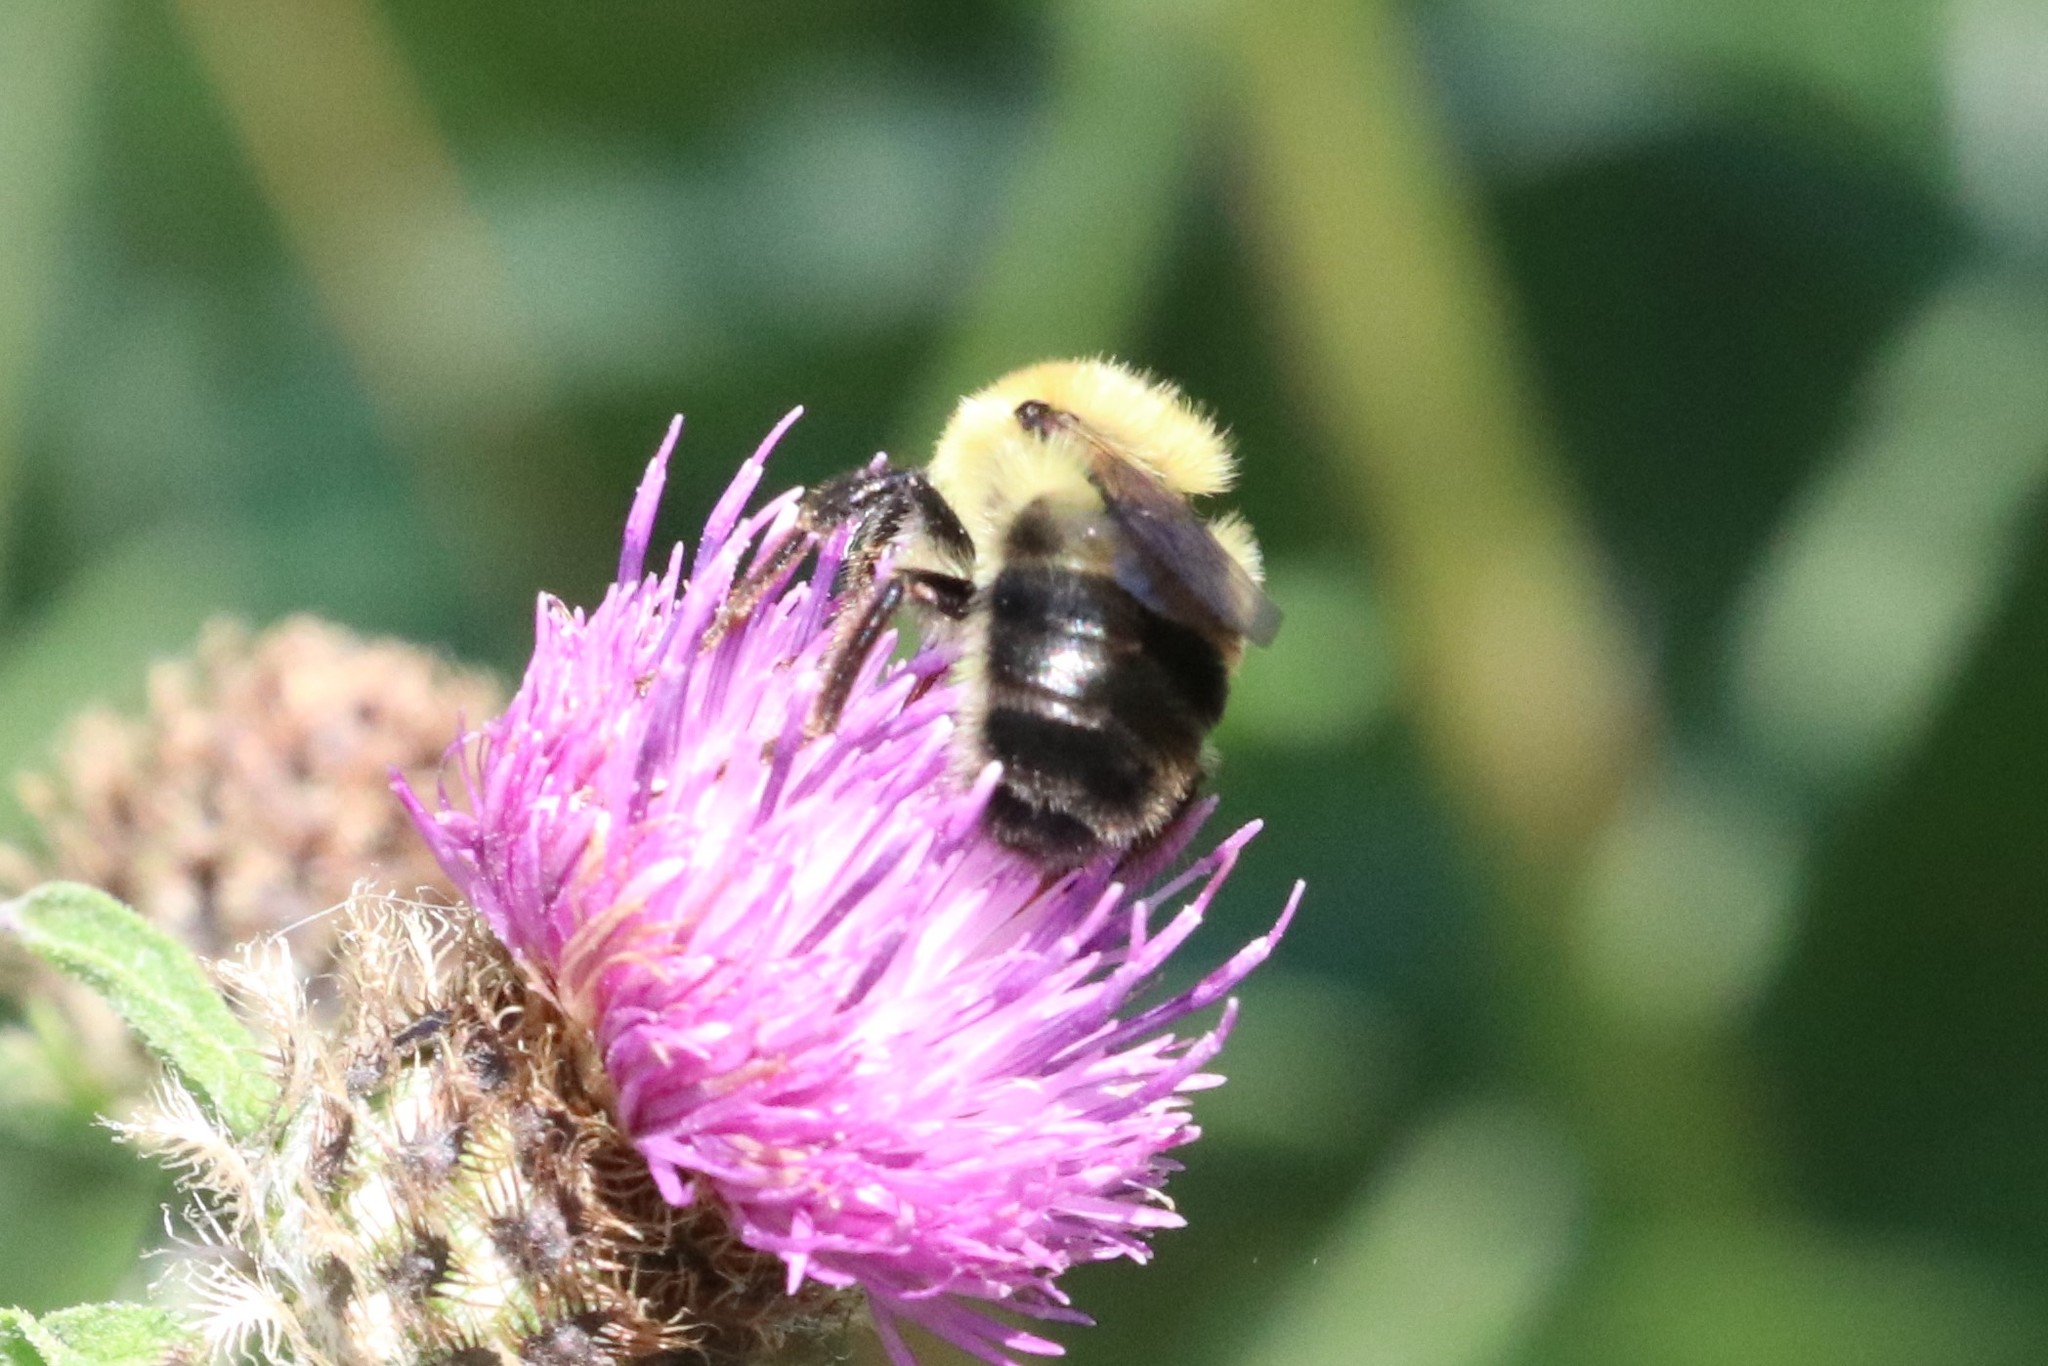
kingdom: Animalia
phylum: Arthropoda
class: Insecta
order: Hymenoptera
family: Apidae
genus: Bombus
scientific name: Bombus bimaculatus
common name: Two-spotted bumble bee
